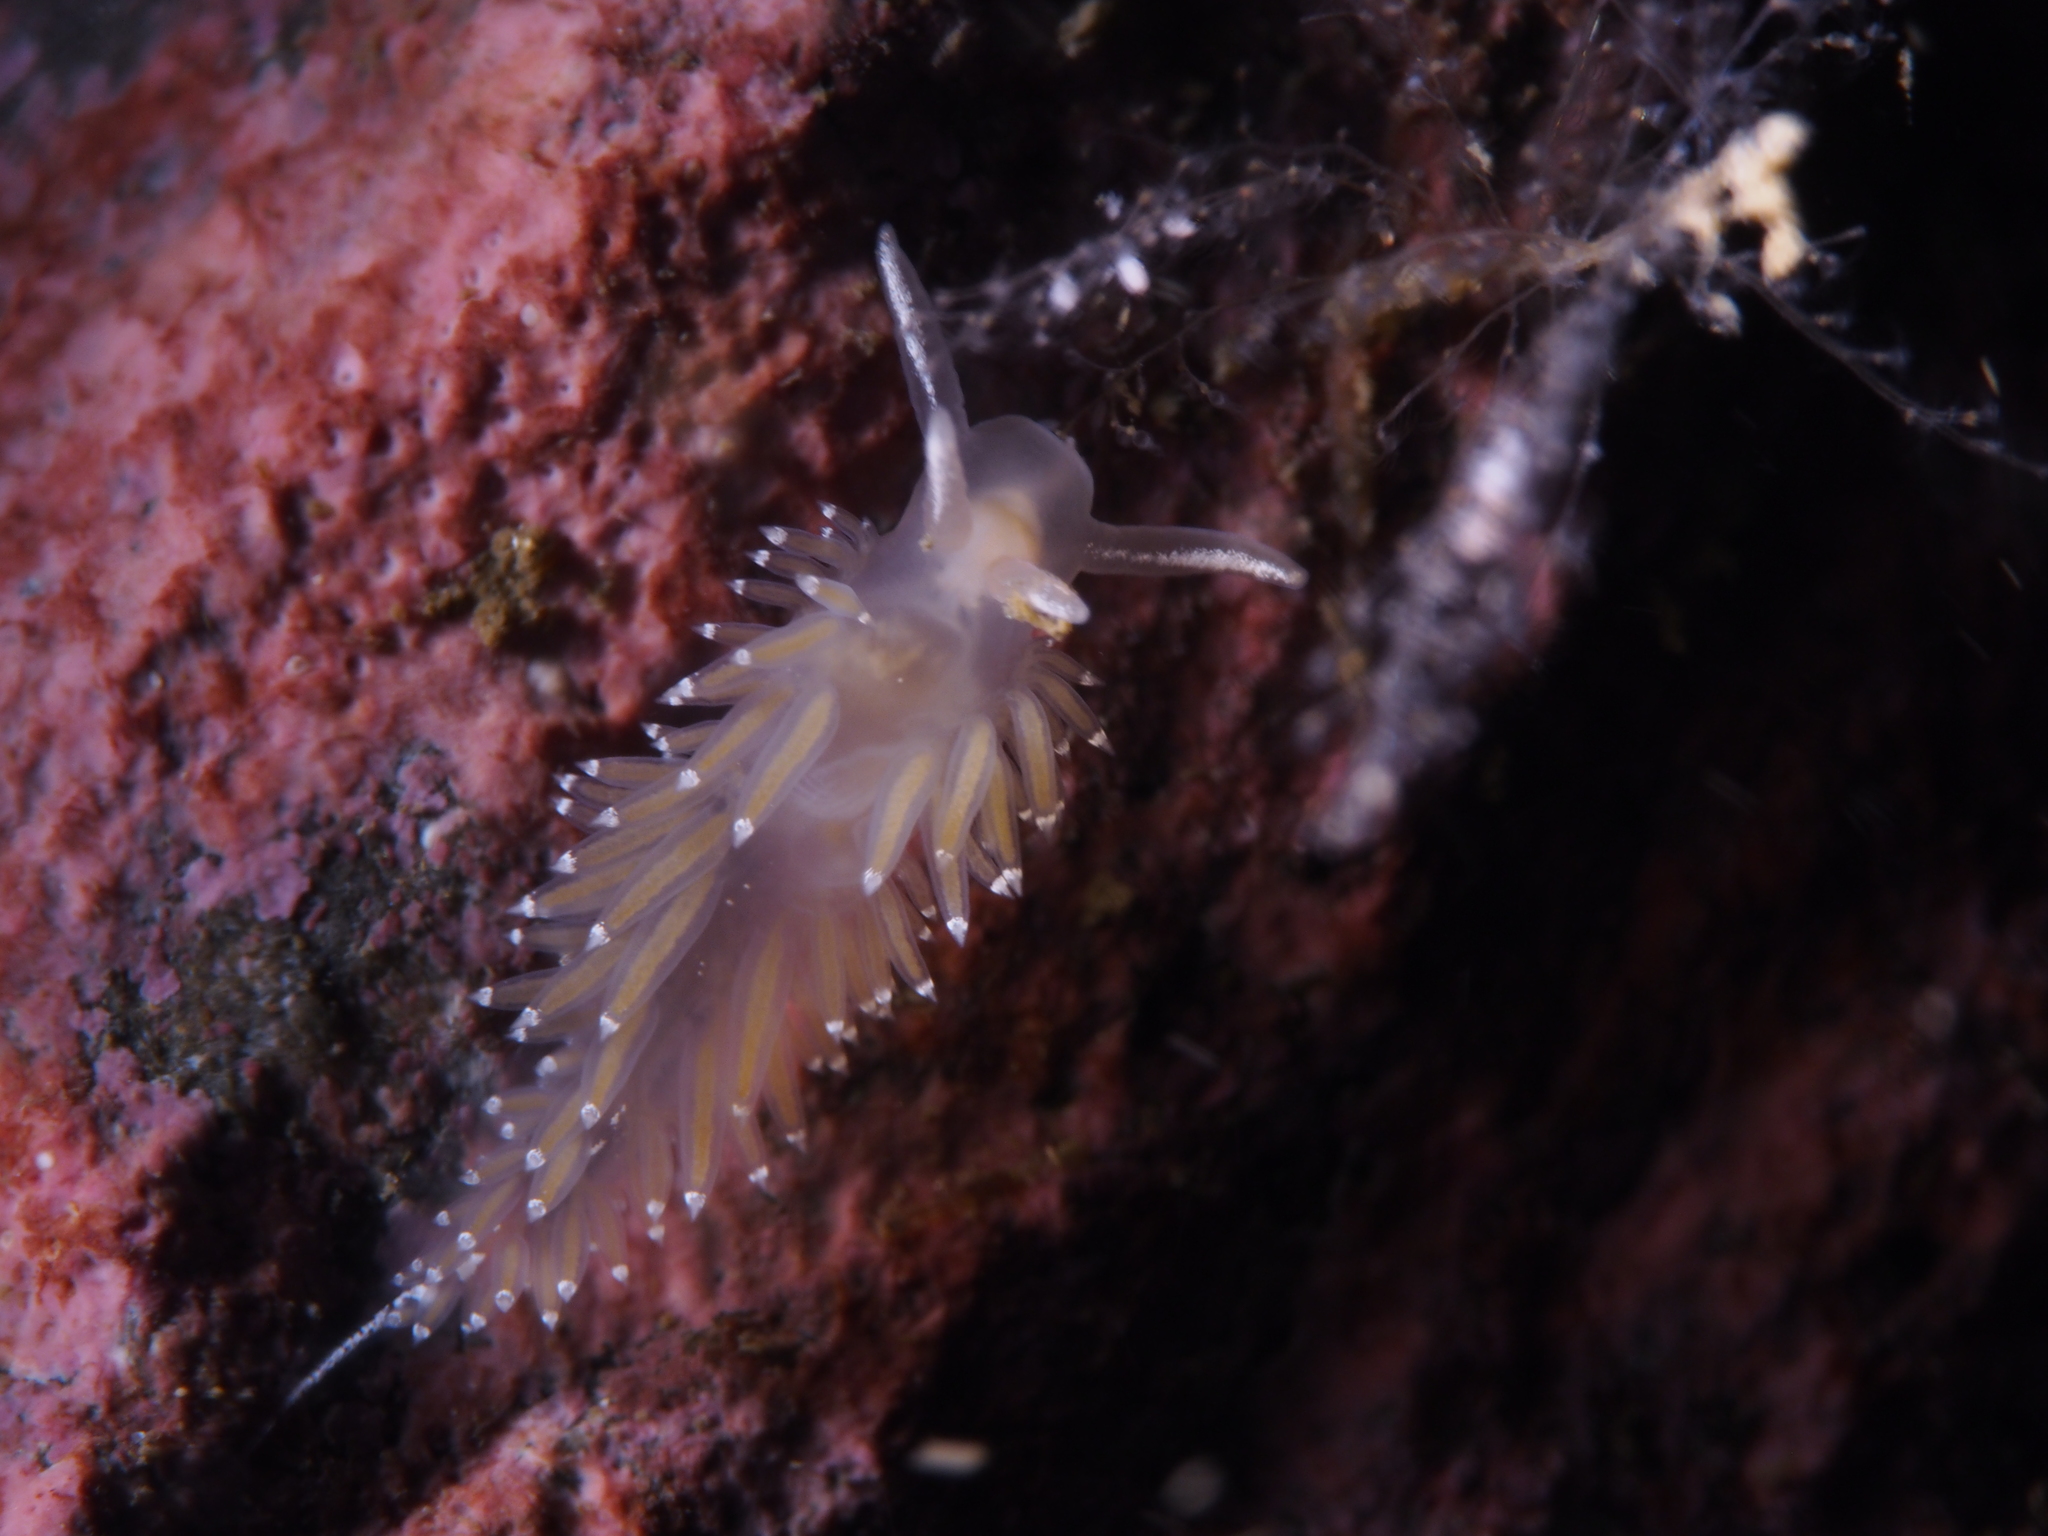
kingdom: Animalia
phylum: Mollusca
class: Gastropoda
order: Nudibranchia
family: Coryphellidae
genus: Coryphella
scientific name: Coryphella verrucosa
